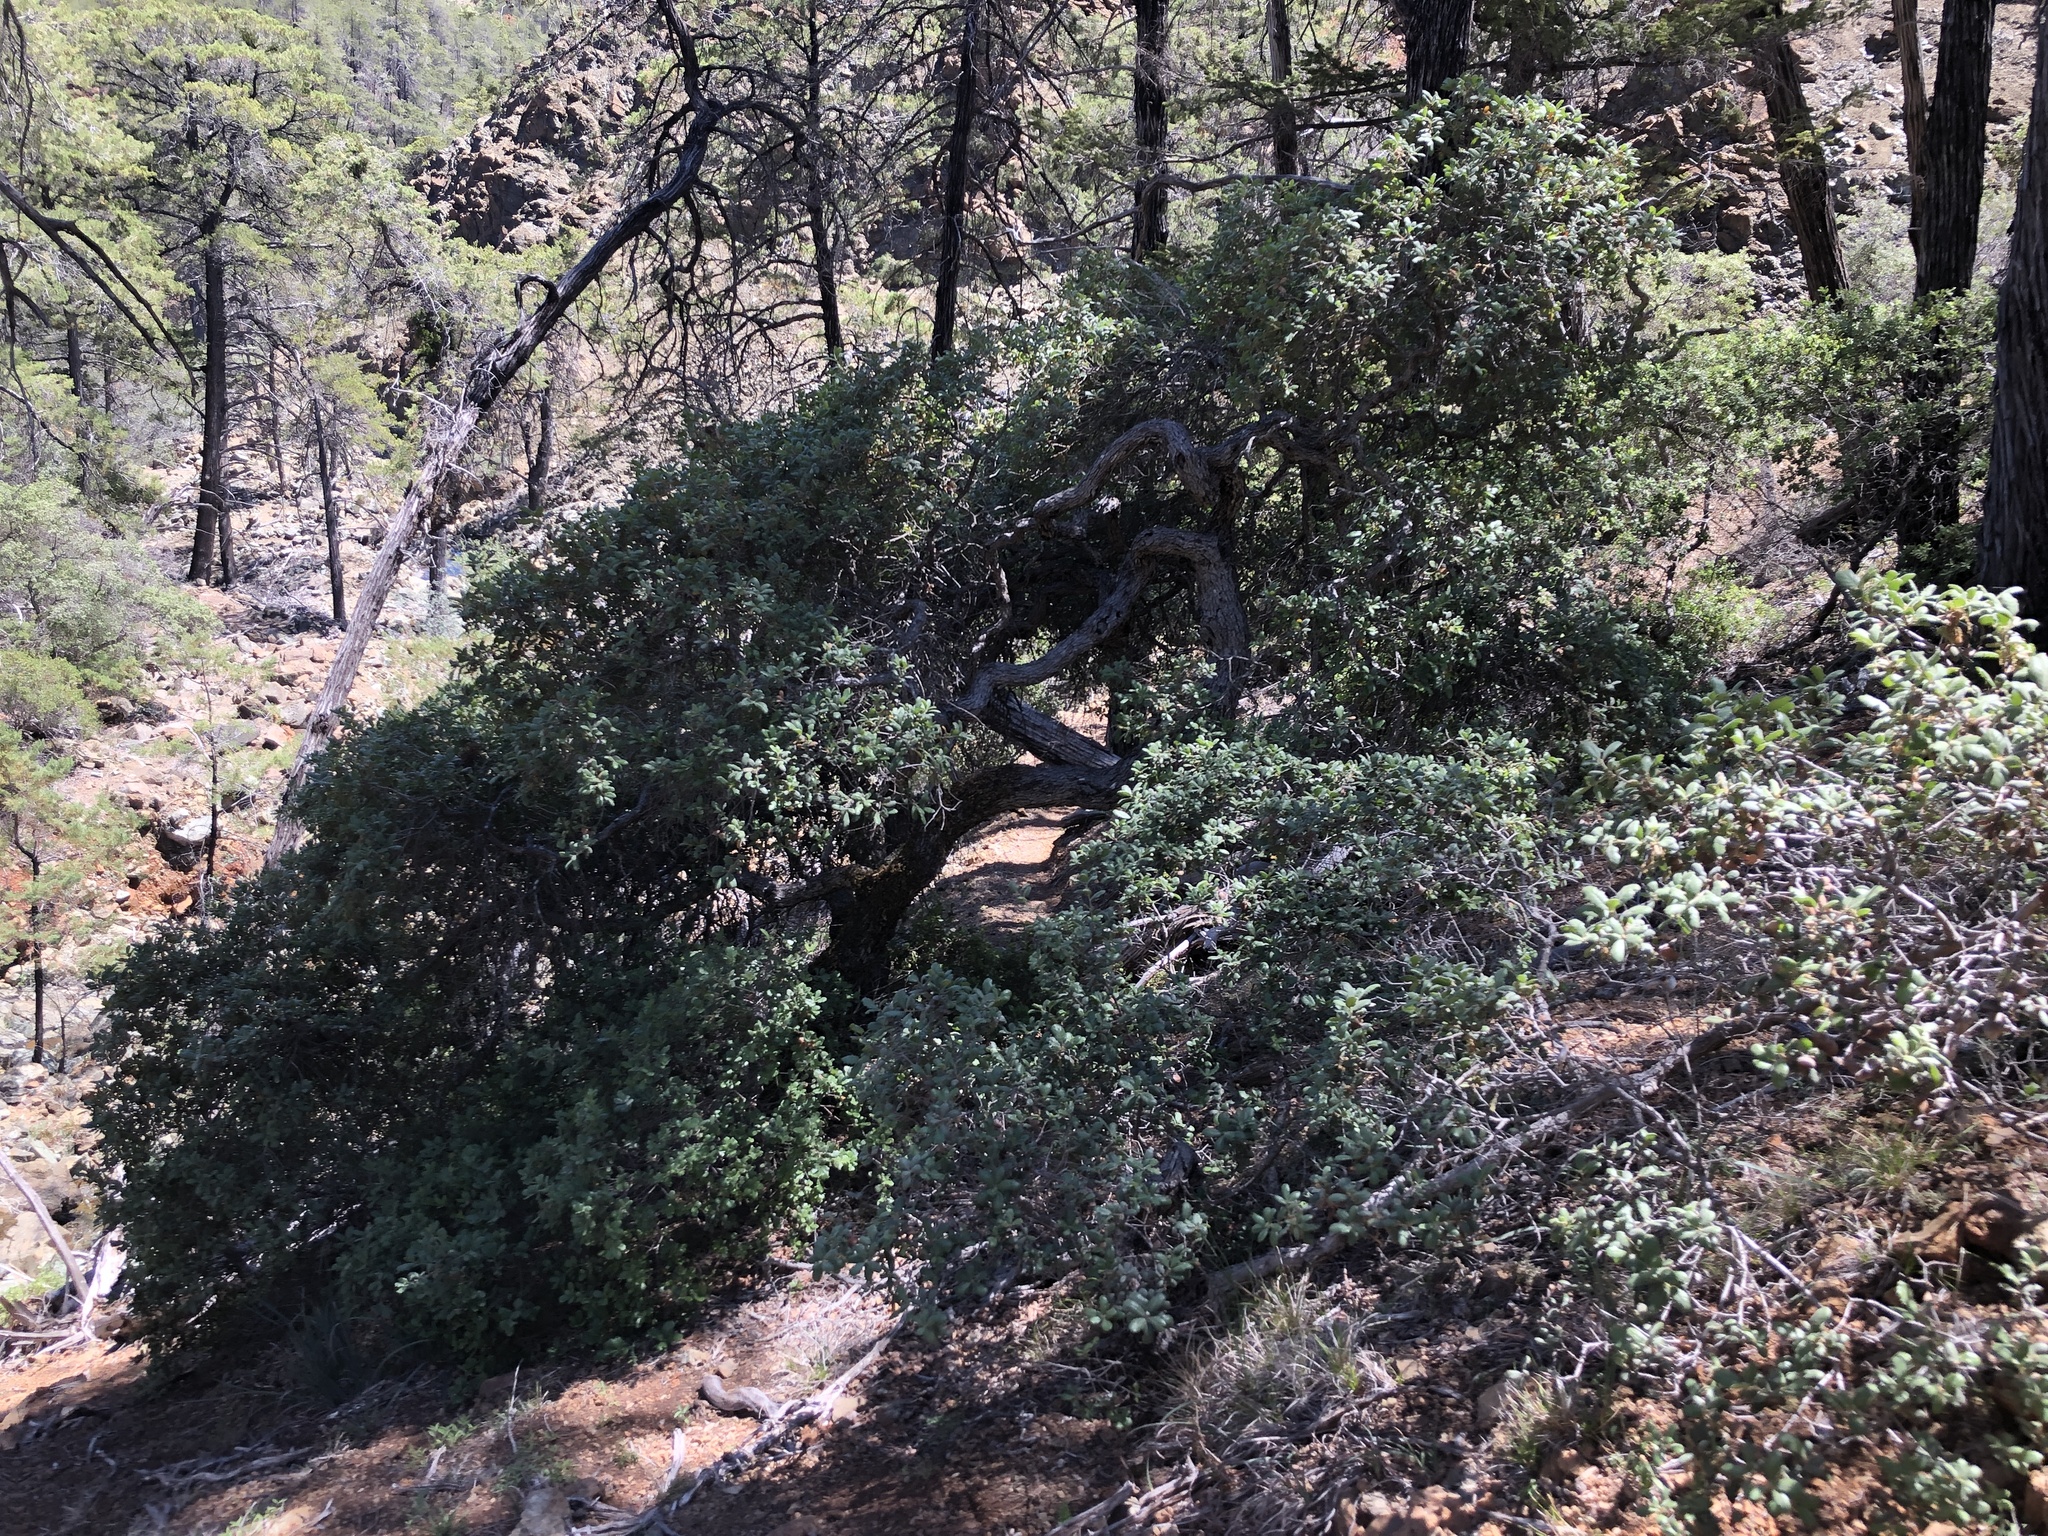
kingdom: Plantae
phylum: Tracheophyta
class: Magnoliopsida
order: Fagales
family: Fagaceae
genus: Quercus
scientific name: Quercus durata
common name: Leather oak
